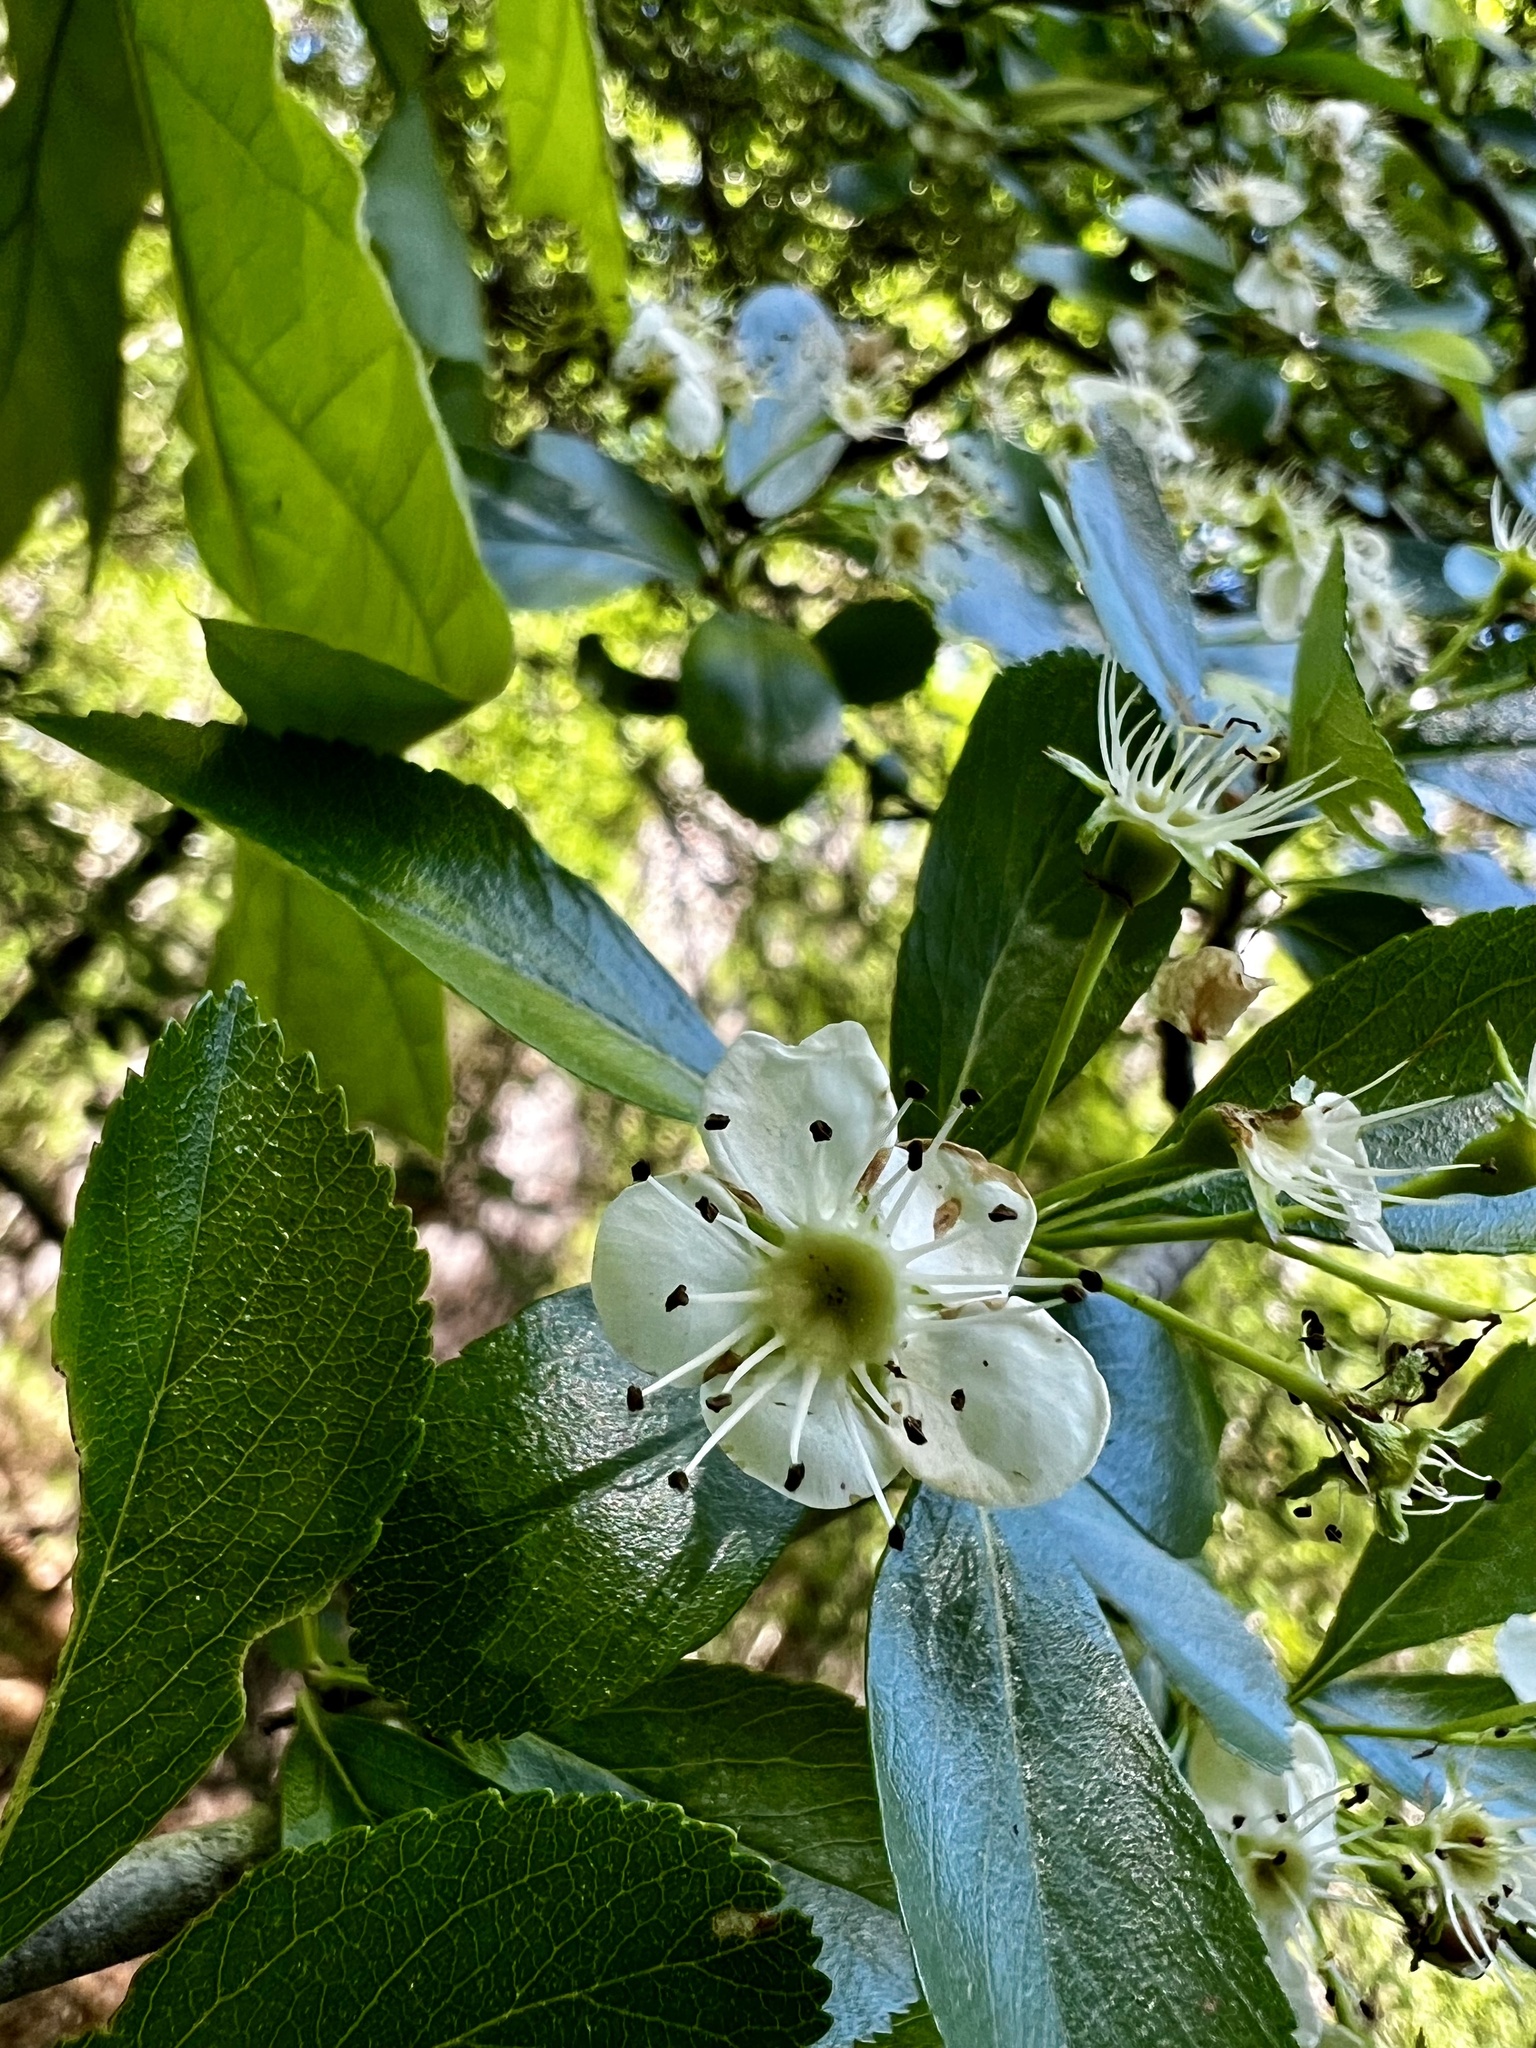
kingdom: Plantae
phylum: Tracheophyta
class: Magnoliopsida
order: Rosales
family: Rosaceae
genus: Crataegus
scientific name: Crataegus crus-galli
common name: Cockspurthorn
